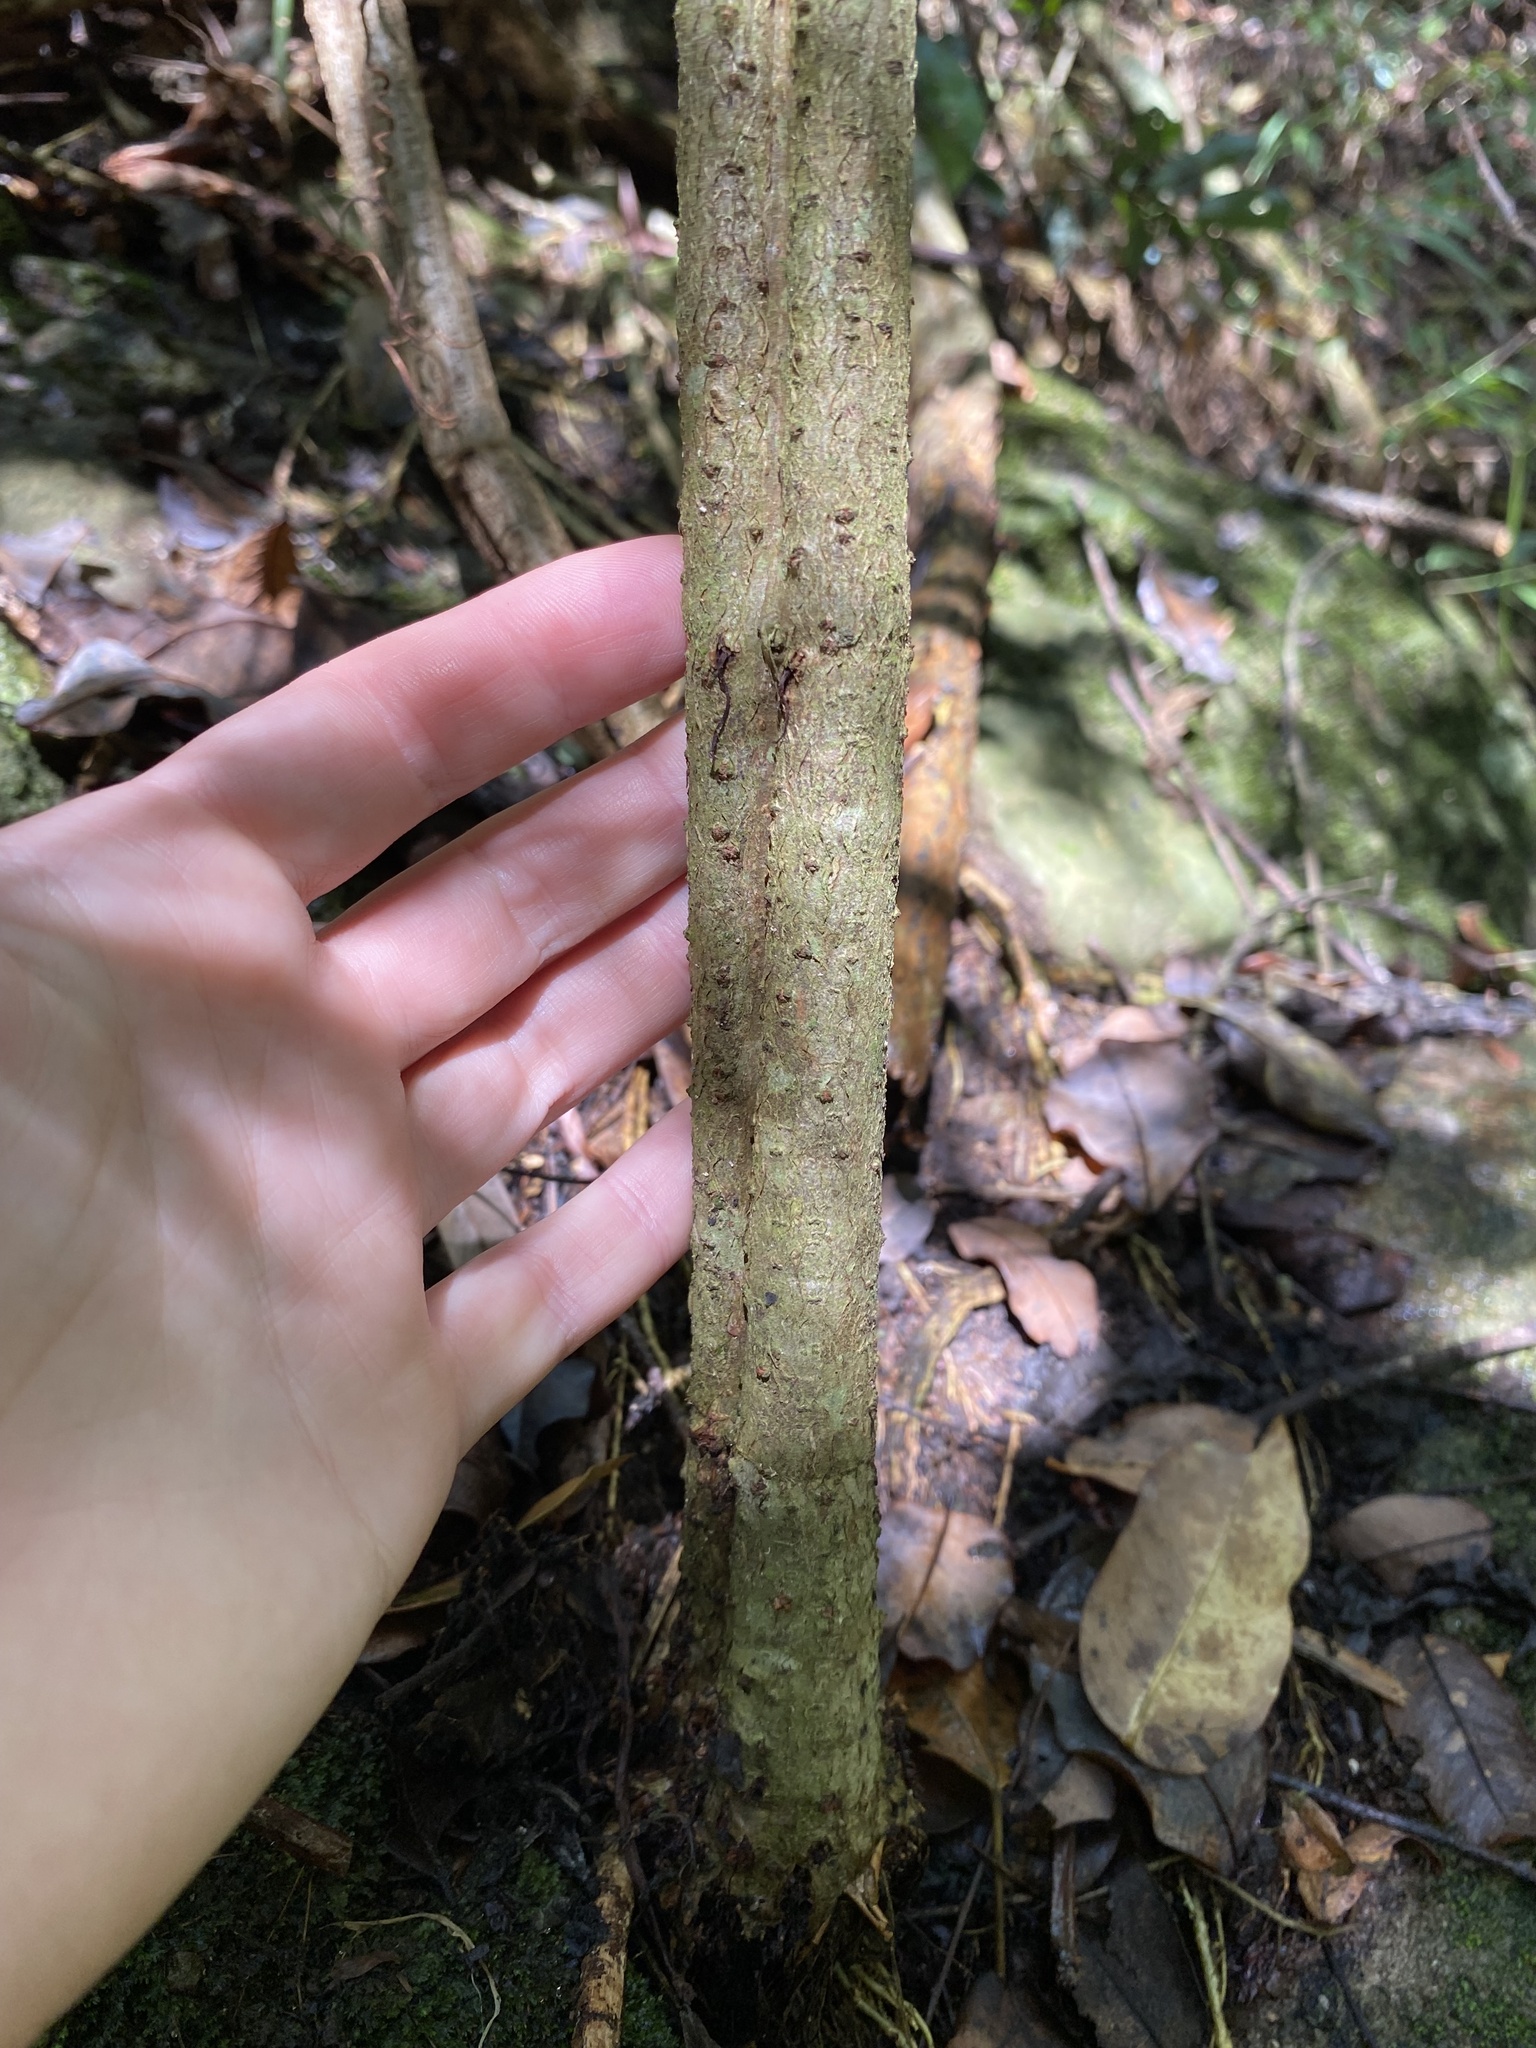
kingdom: Plantae
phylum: Tracheophyta
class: Magnoliopsida
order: Vitales
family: Vitaceae
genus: Cyphostemma
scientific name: Cyphostemma hypoleucum
